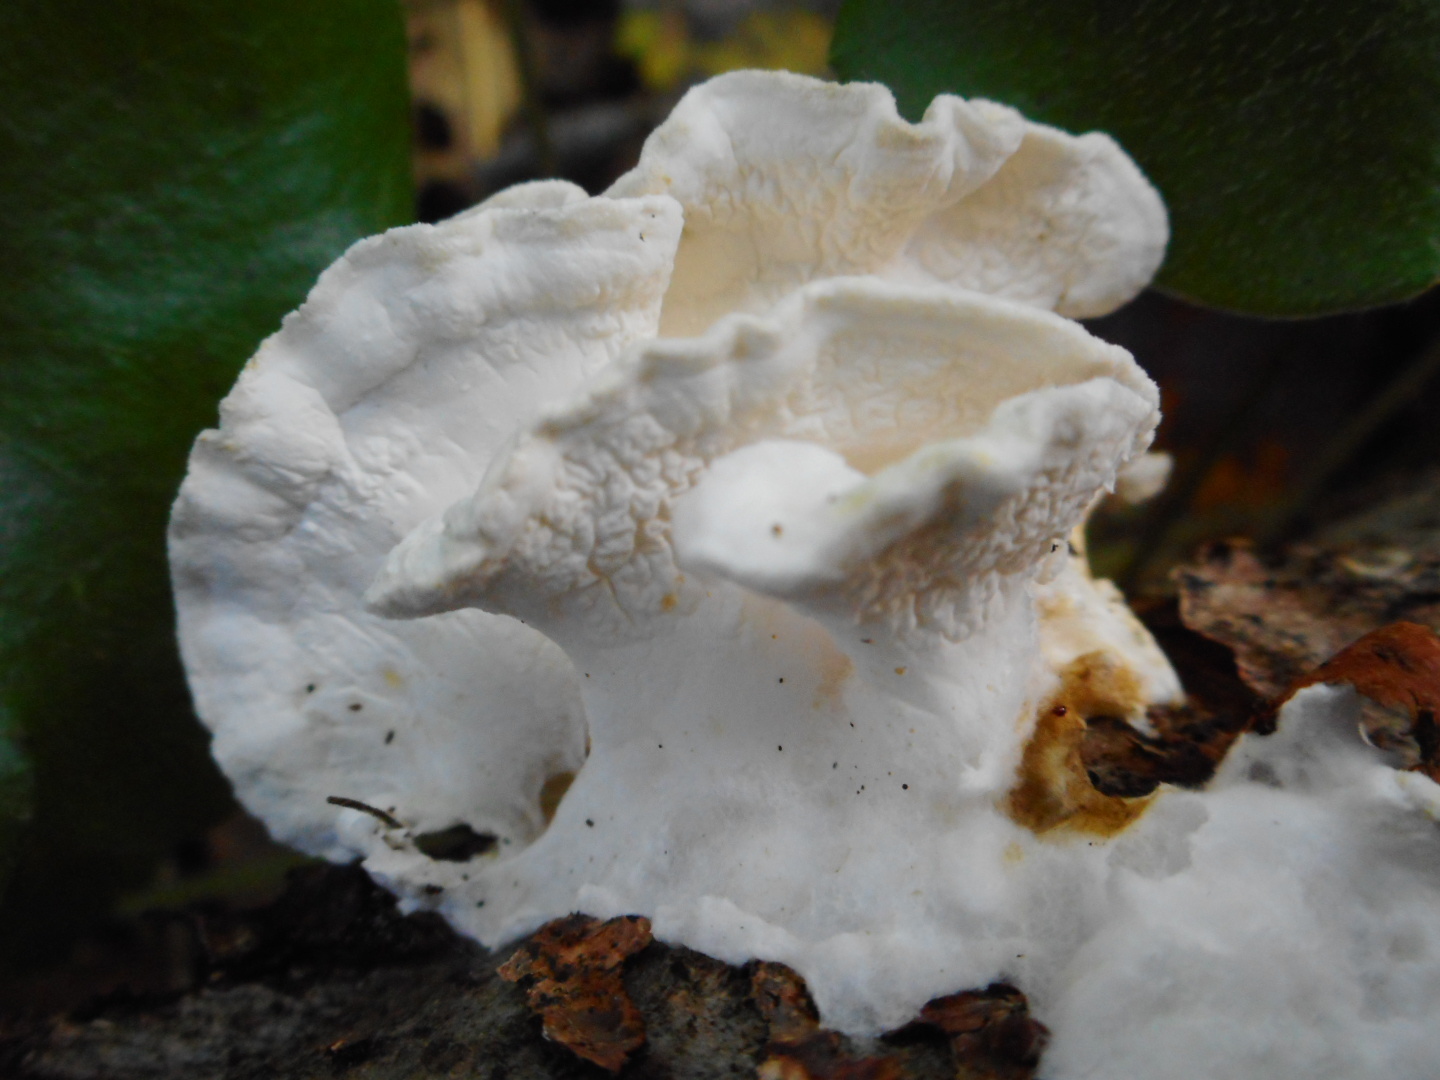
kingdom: Fungi
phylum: Basidiomycota
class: Agaricomycetes
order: Agaricales
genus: Plicatura
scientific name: Plicatura nivea
